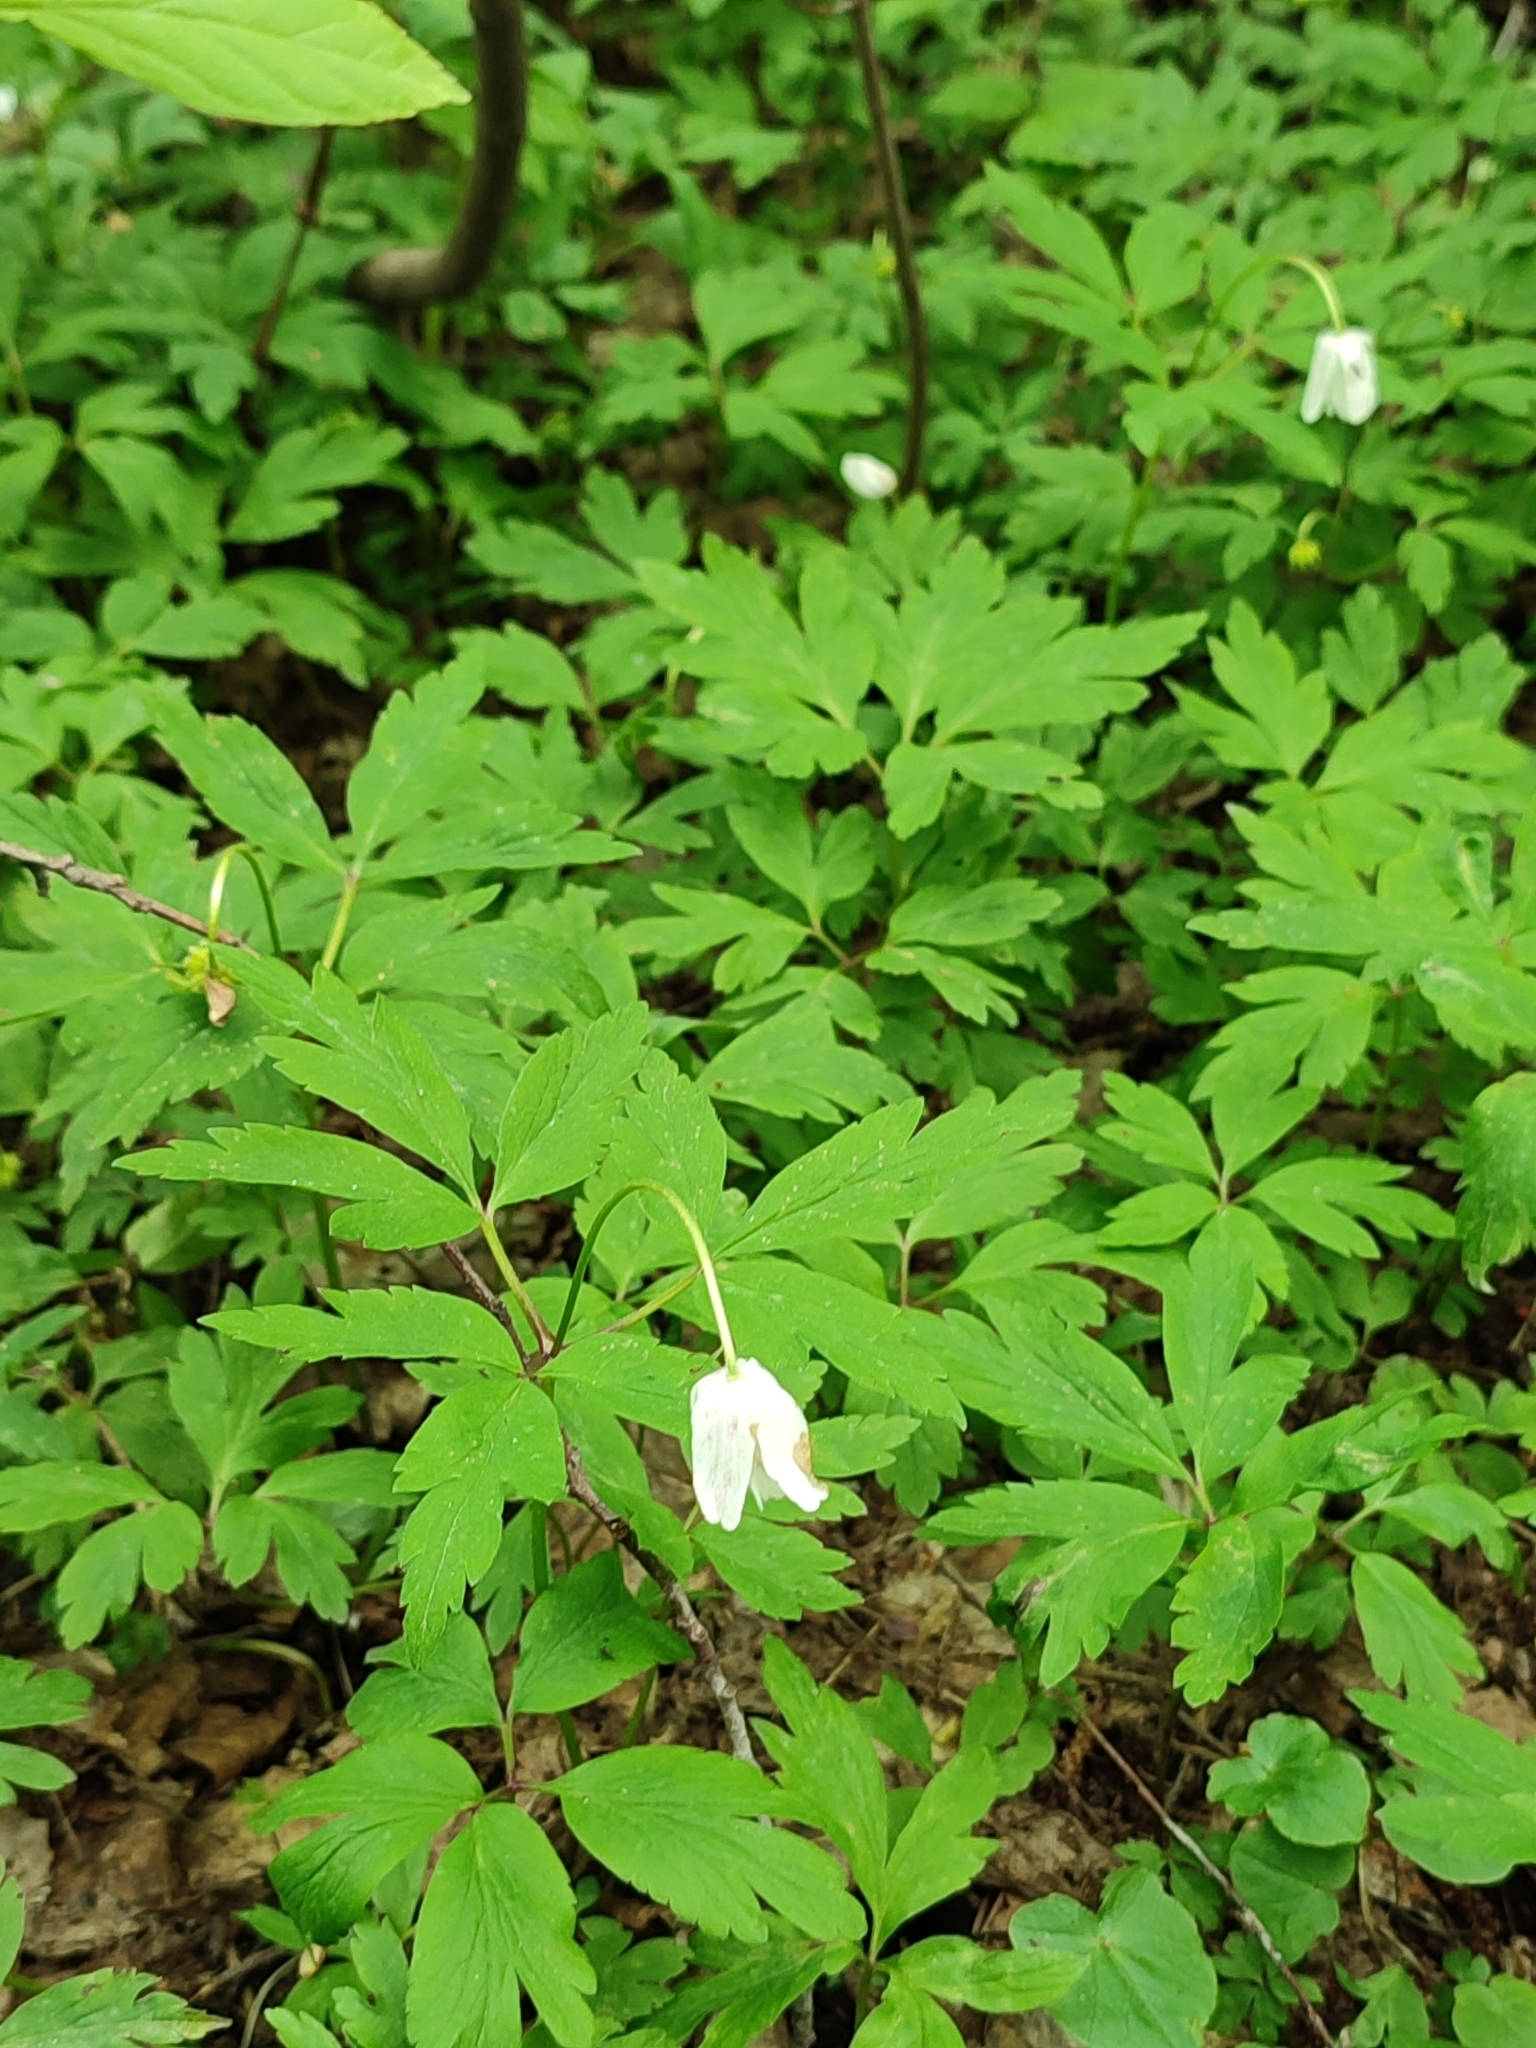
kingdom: Plantae
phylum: Tracheophyta
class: Magnoliopsida
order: Ranunculales
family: Ranunculaceae
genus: Anemone
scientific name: Anemone nemorosa
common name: Wood anemone
